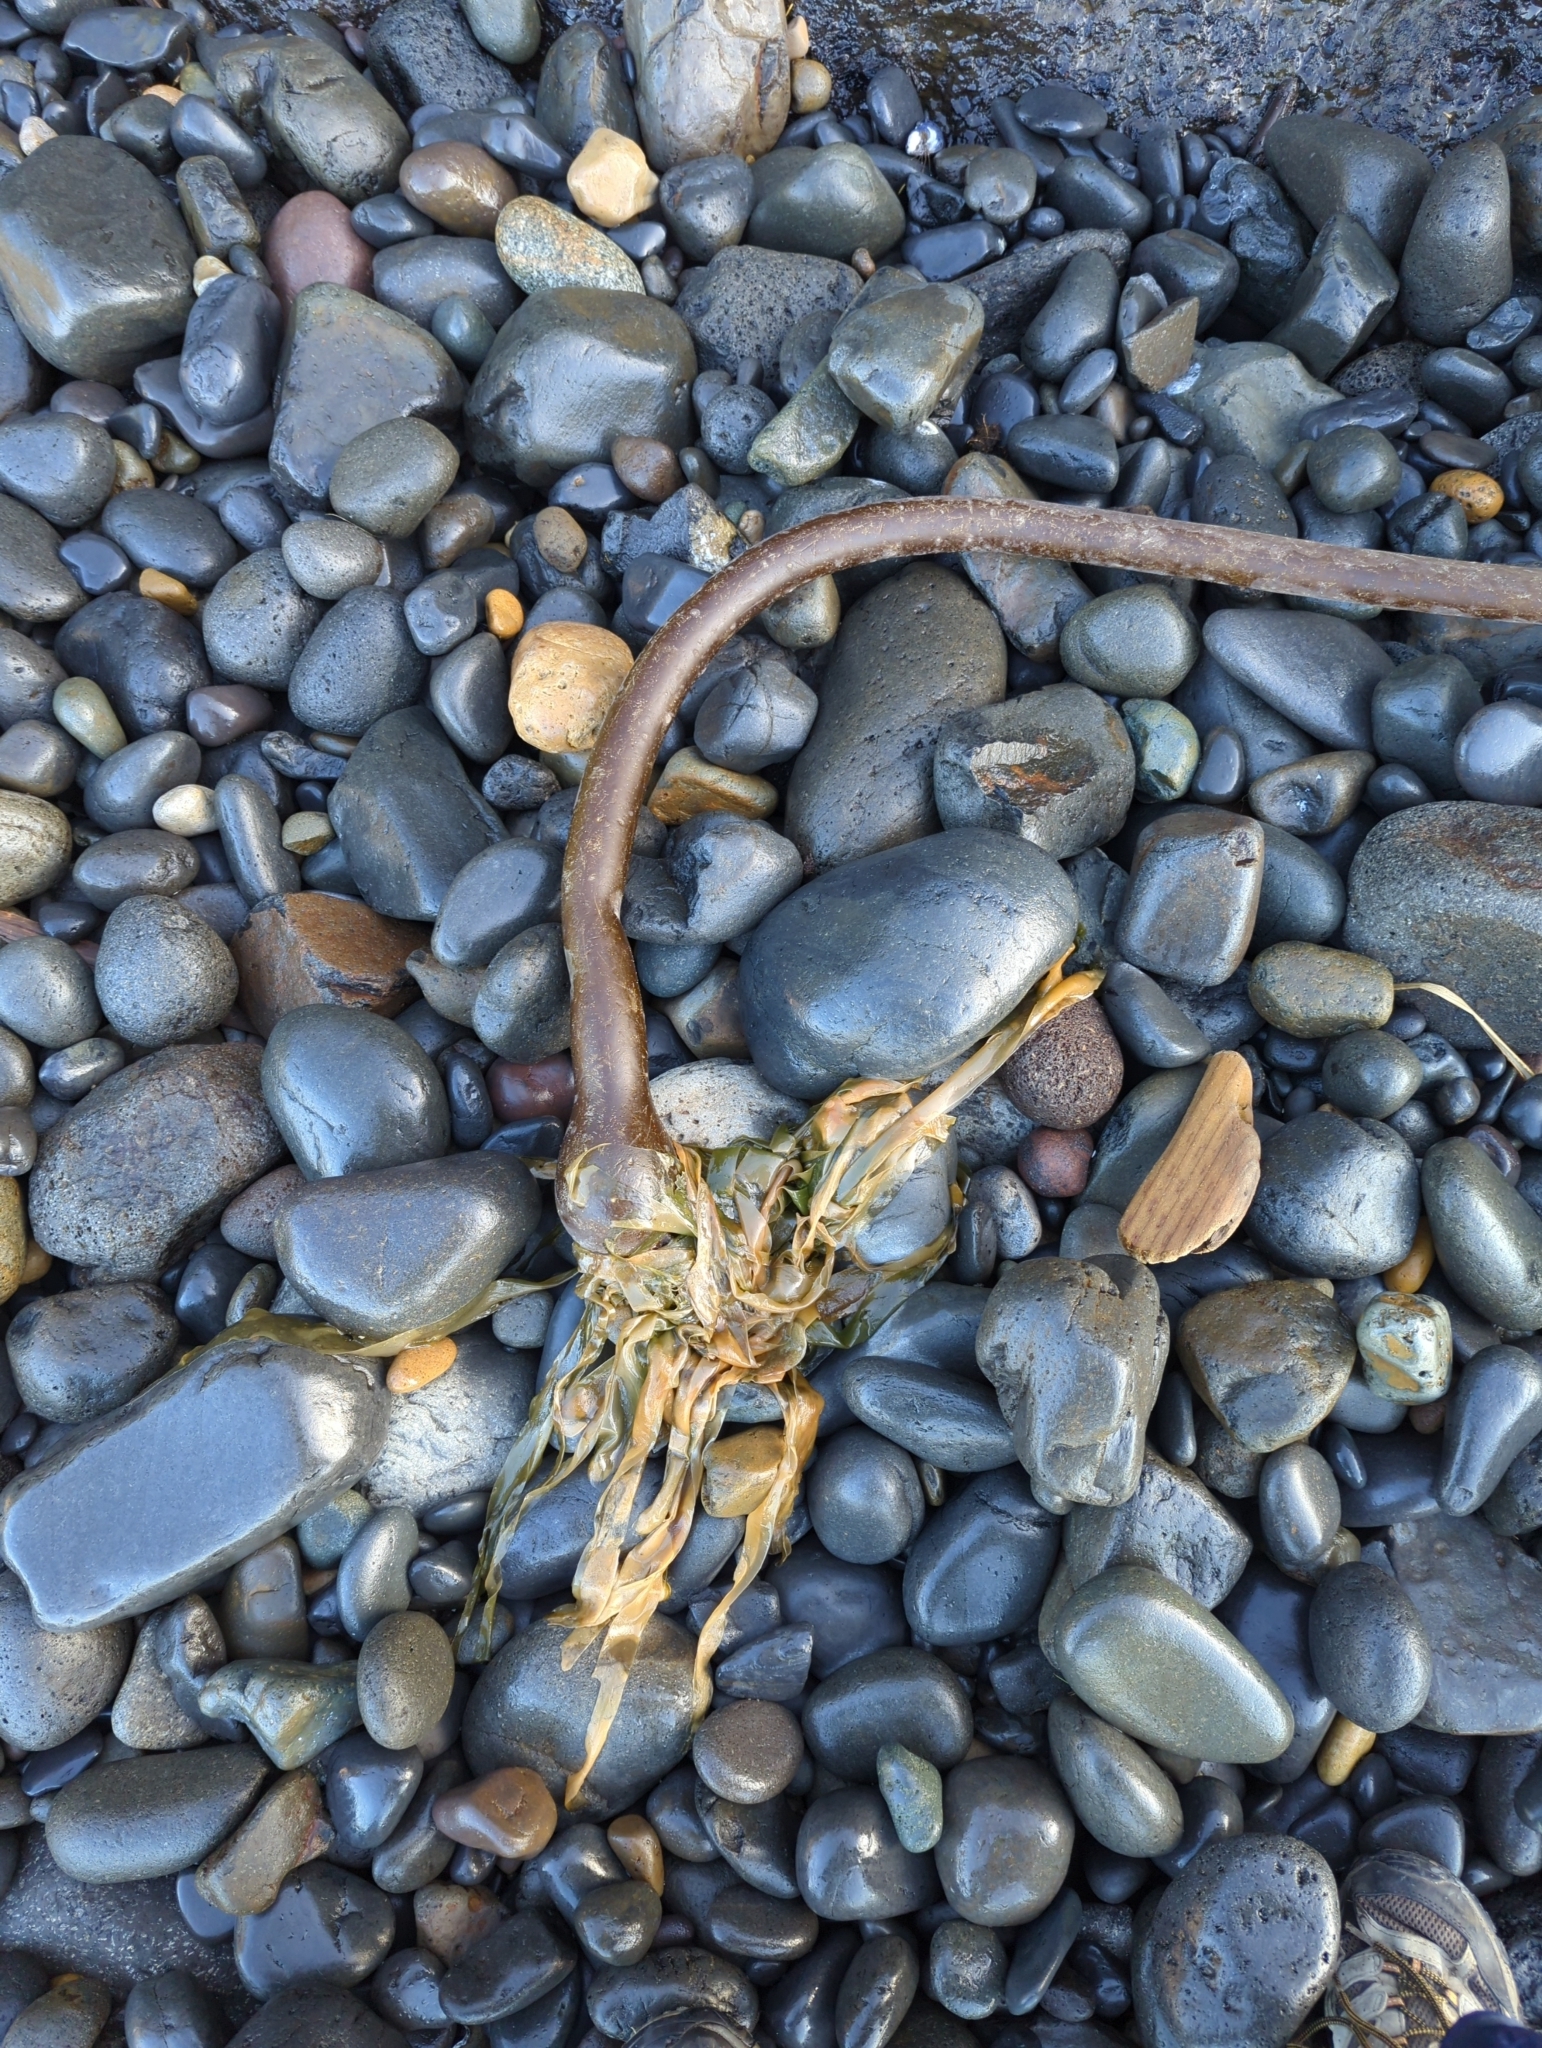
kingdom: Chromista
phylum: Ochrophyta
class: Phaeophyceae
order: Laminariales
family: Laminariaceae
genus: Nereocystis
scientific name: Nereocystis luetkeana
